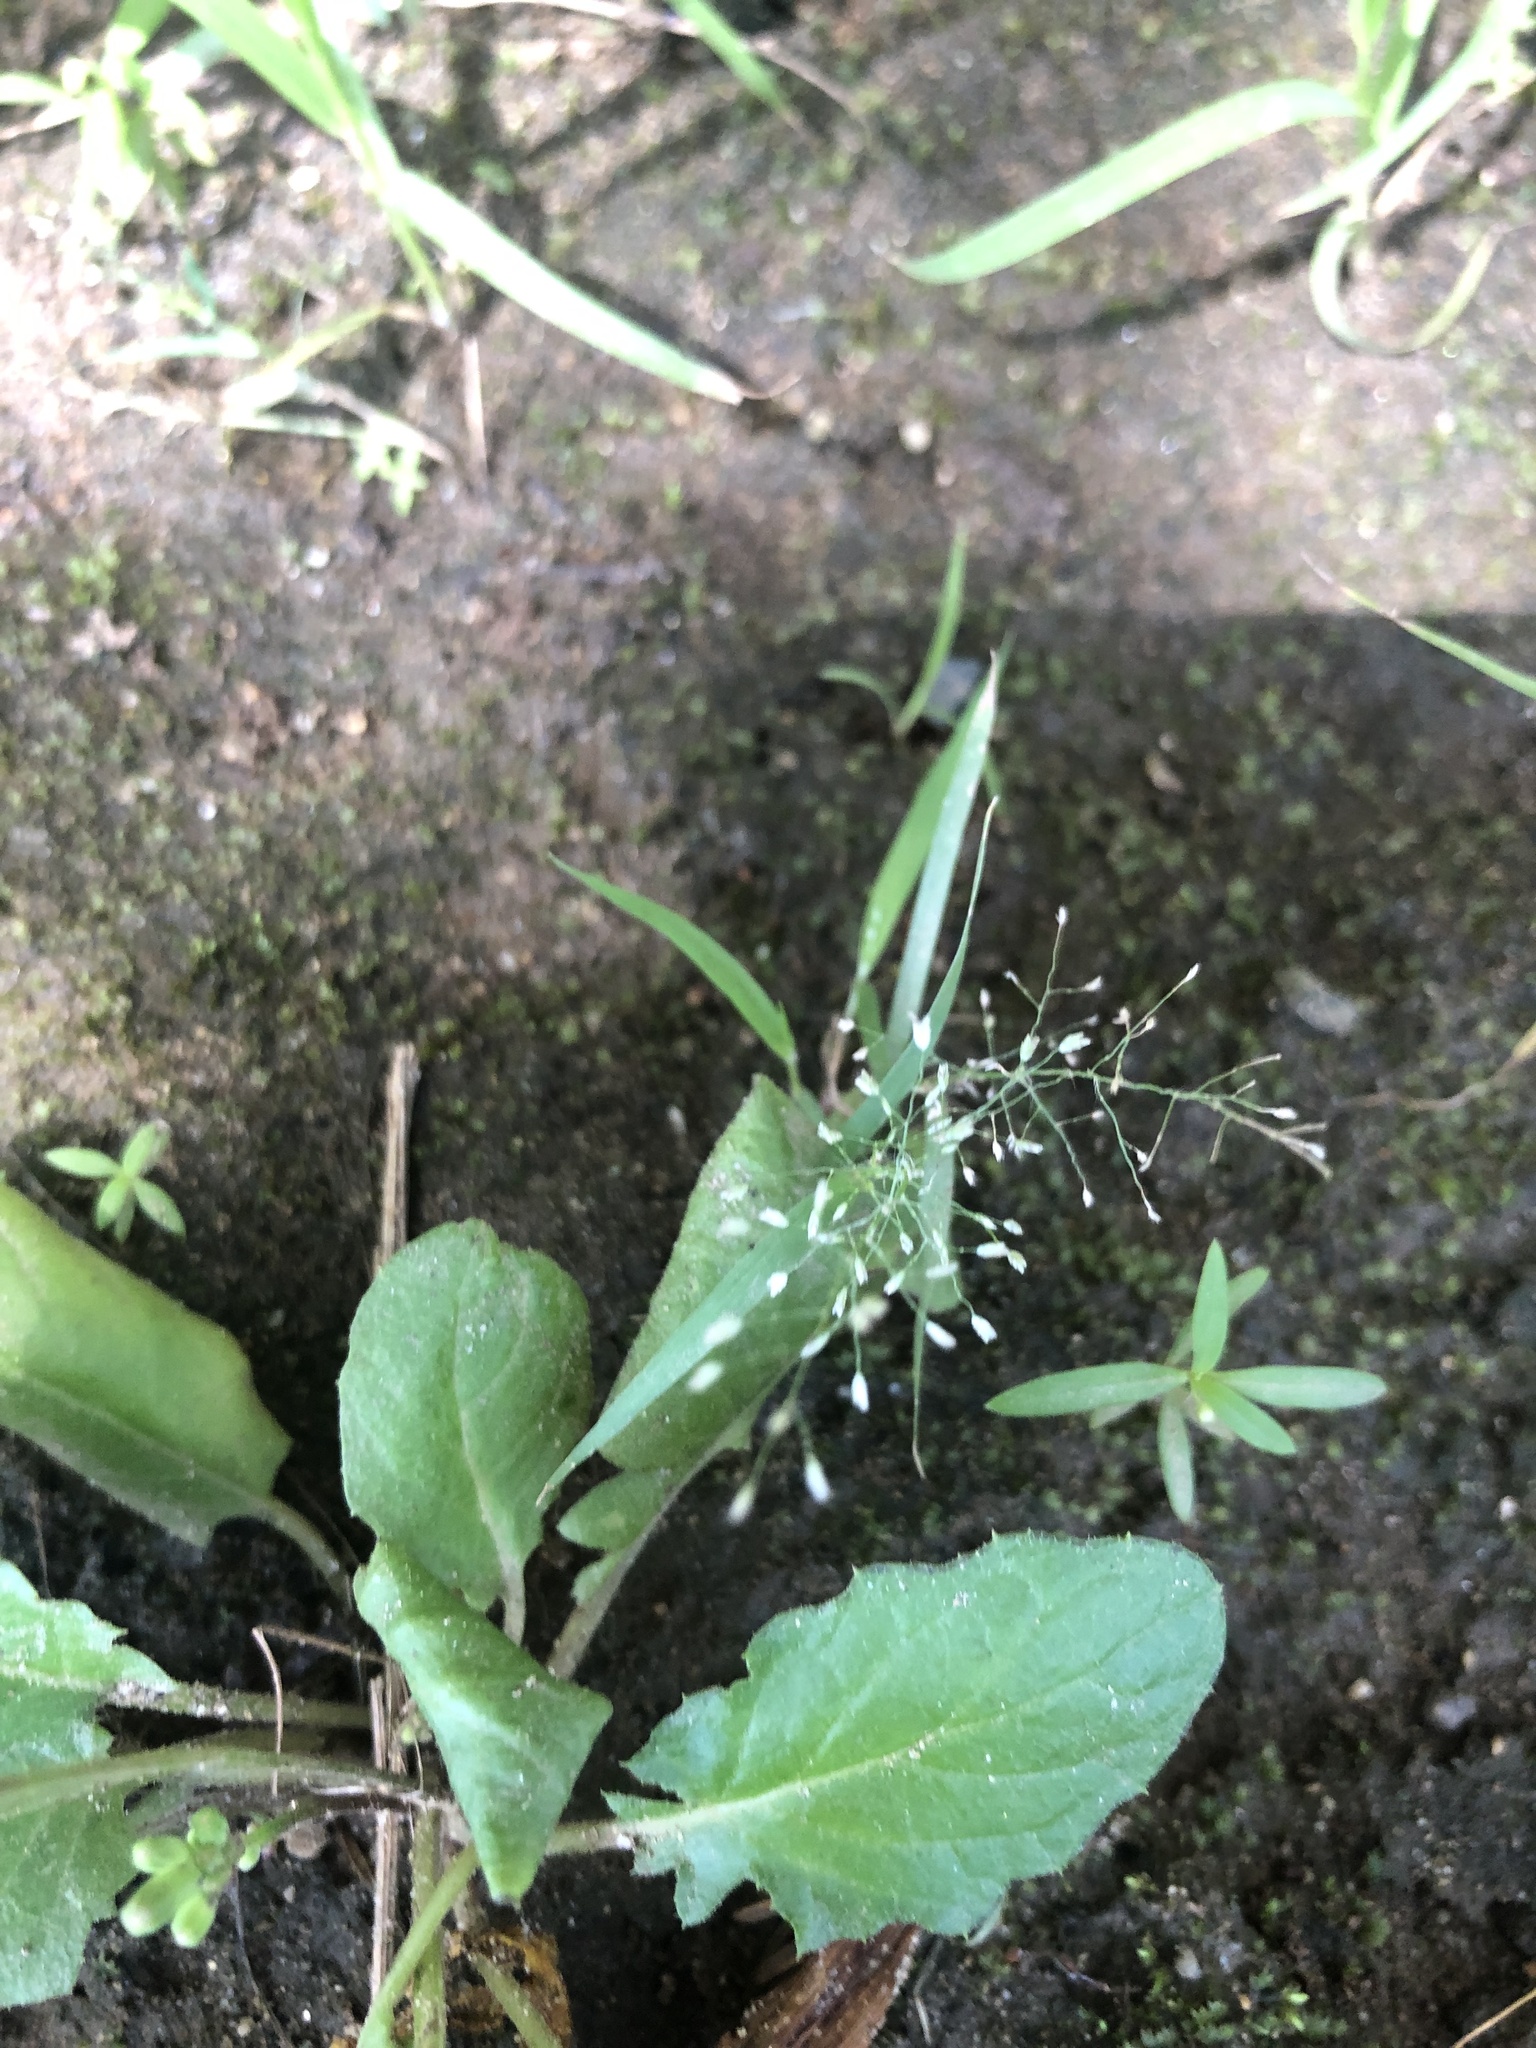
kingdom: Plantae
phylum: Tracheophyta
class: Liliopsida
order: Poales
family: Poaceae
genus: Eragrostis
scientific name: Eragrostis tenella
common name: Japanese lovegrass
